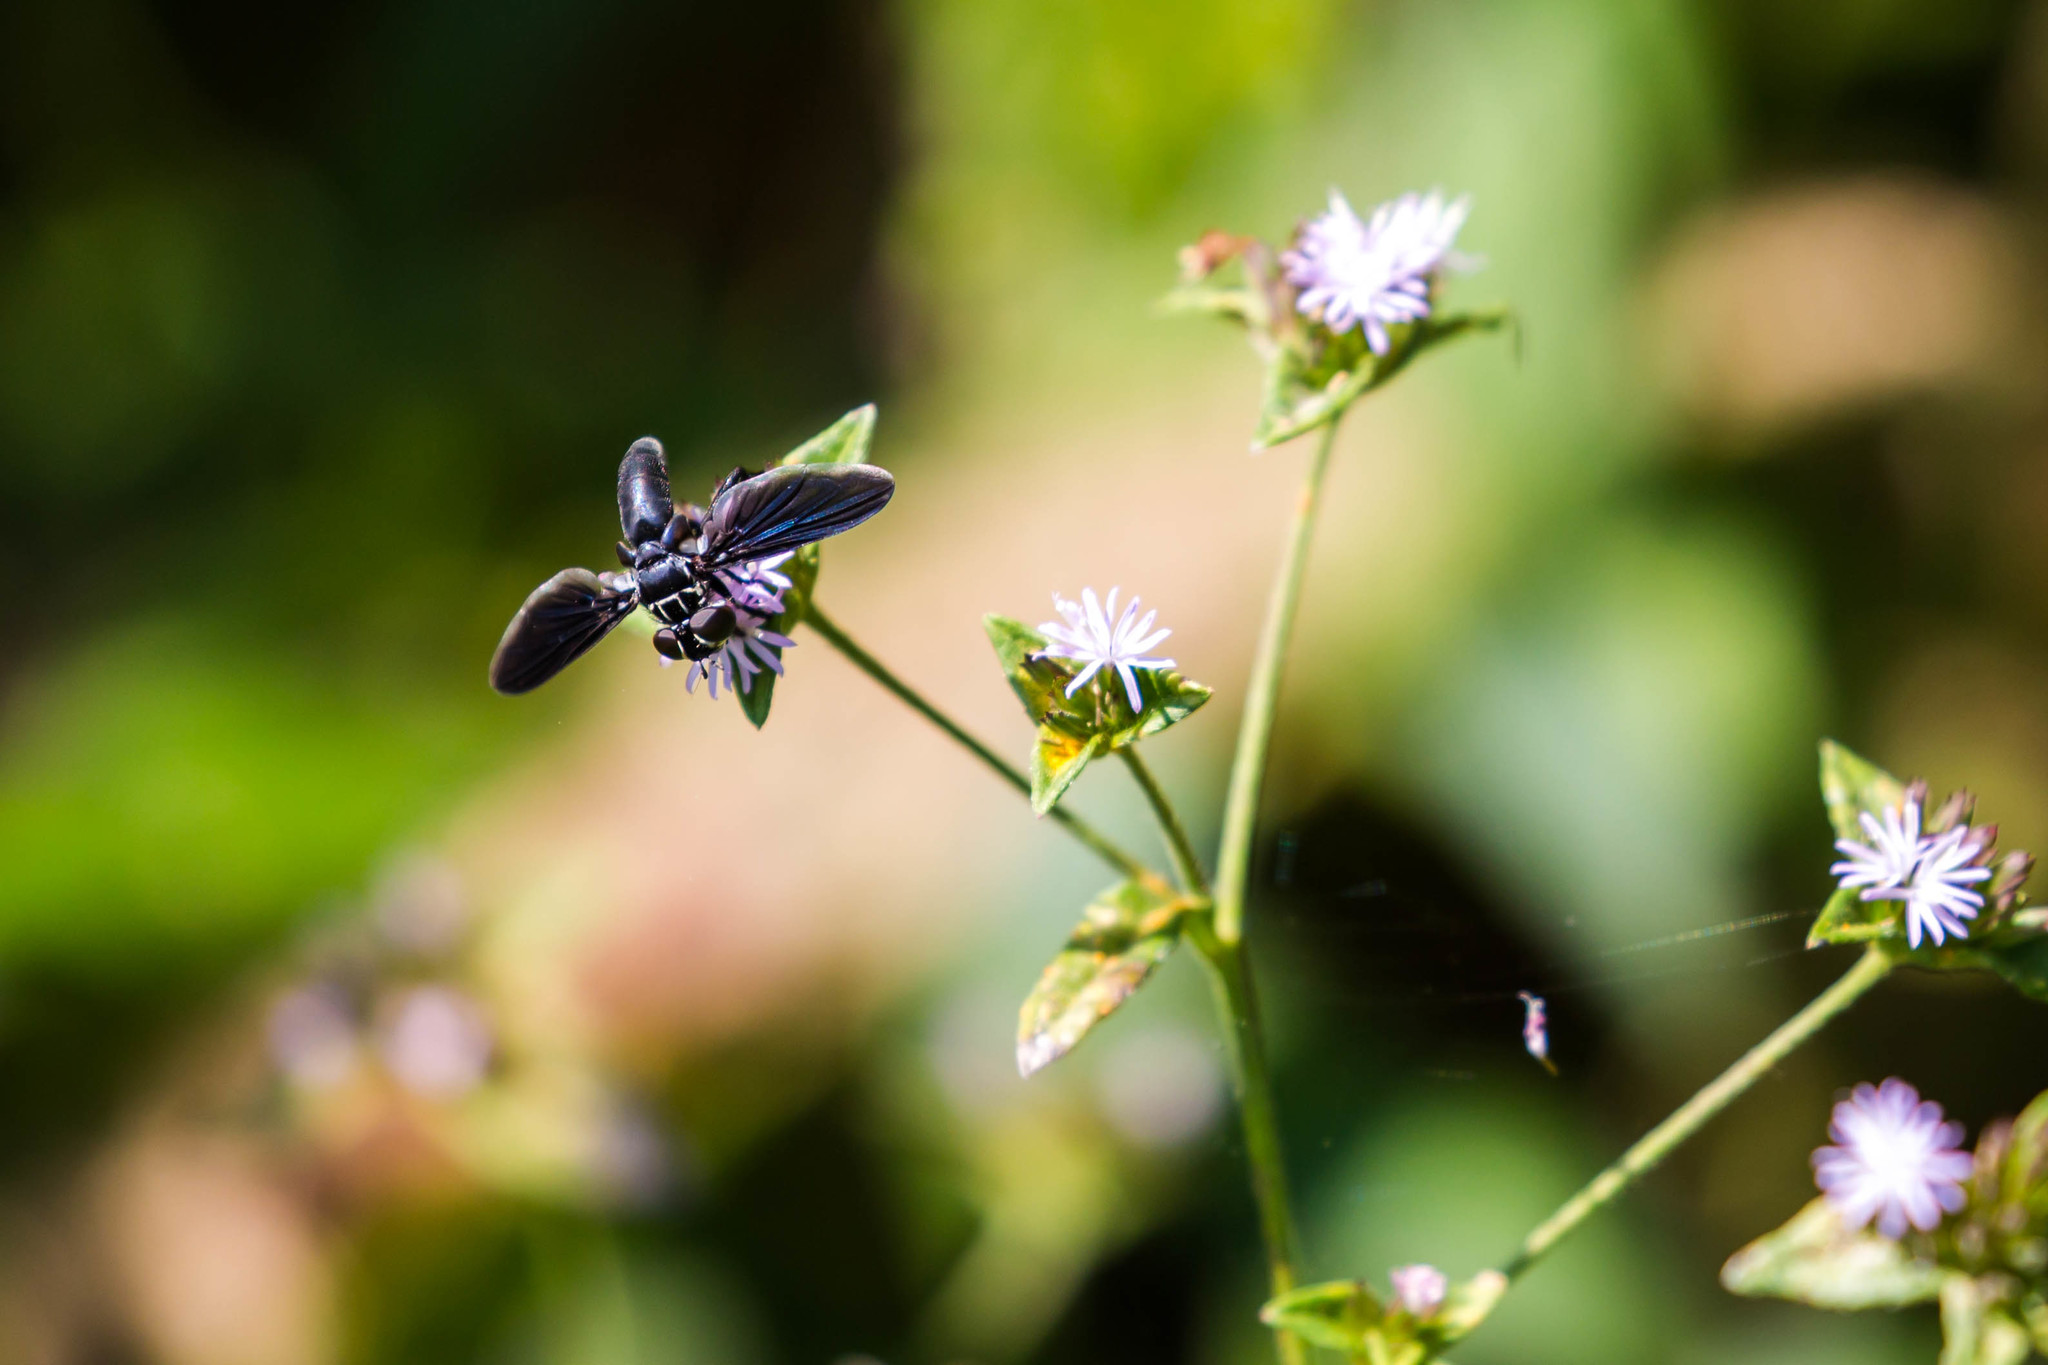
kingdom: Animalia
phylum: Arthropoda
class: Insecta
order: Diptera
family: Tachinidae
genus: Trichopoda
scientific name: Trichopoda lanipes
